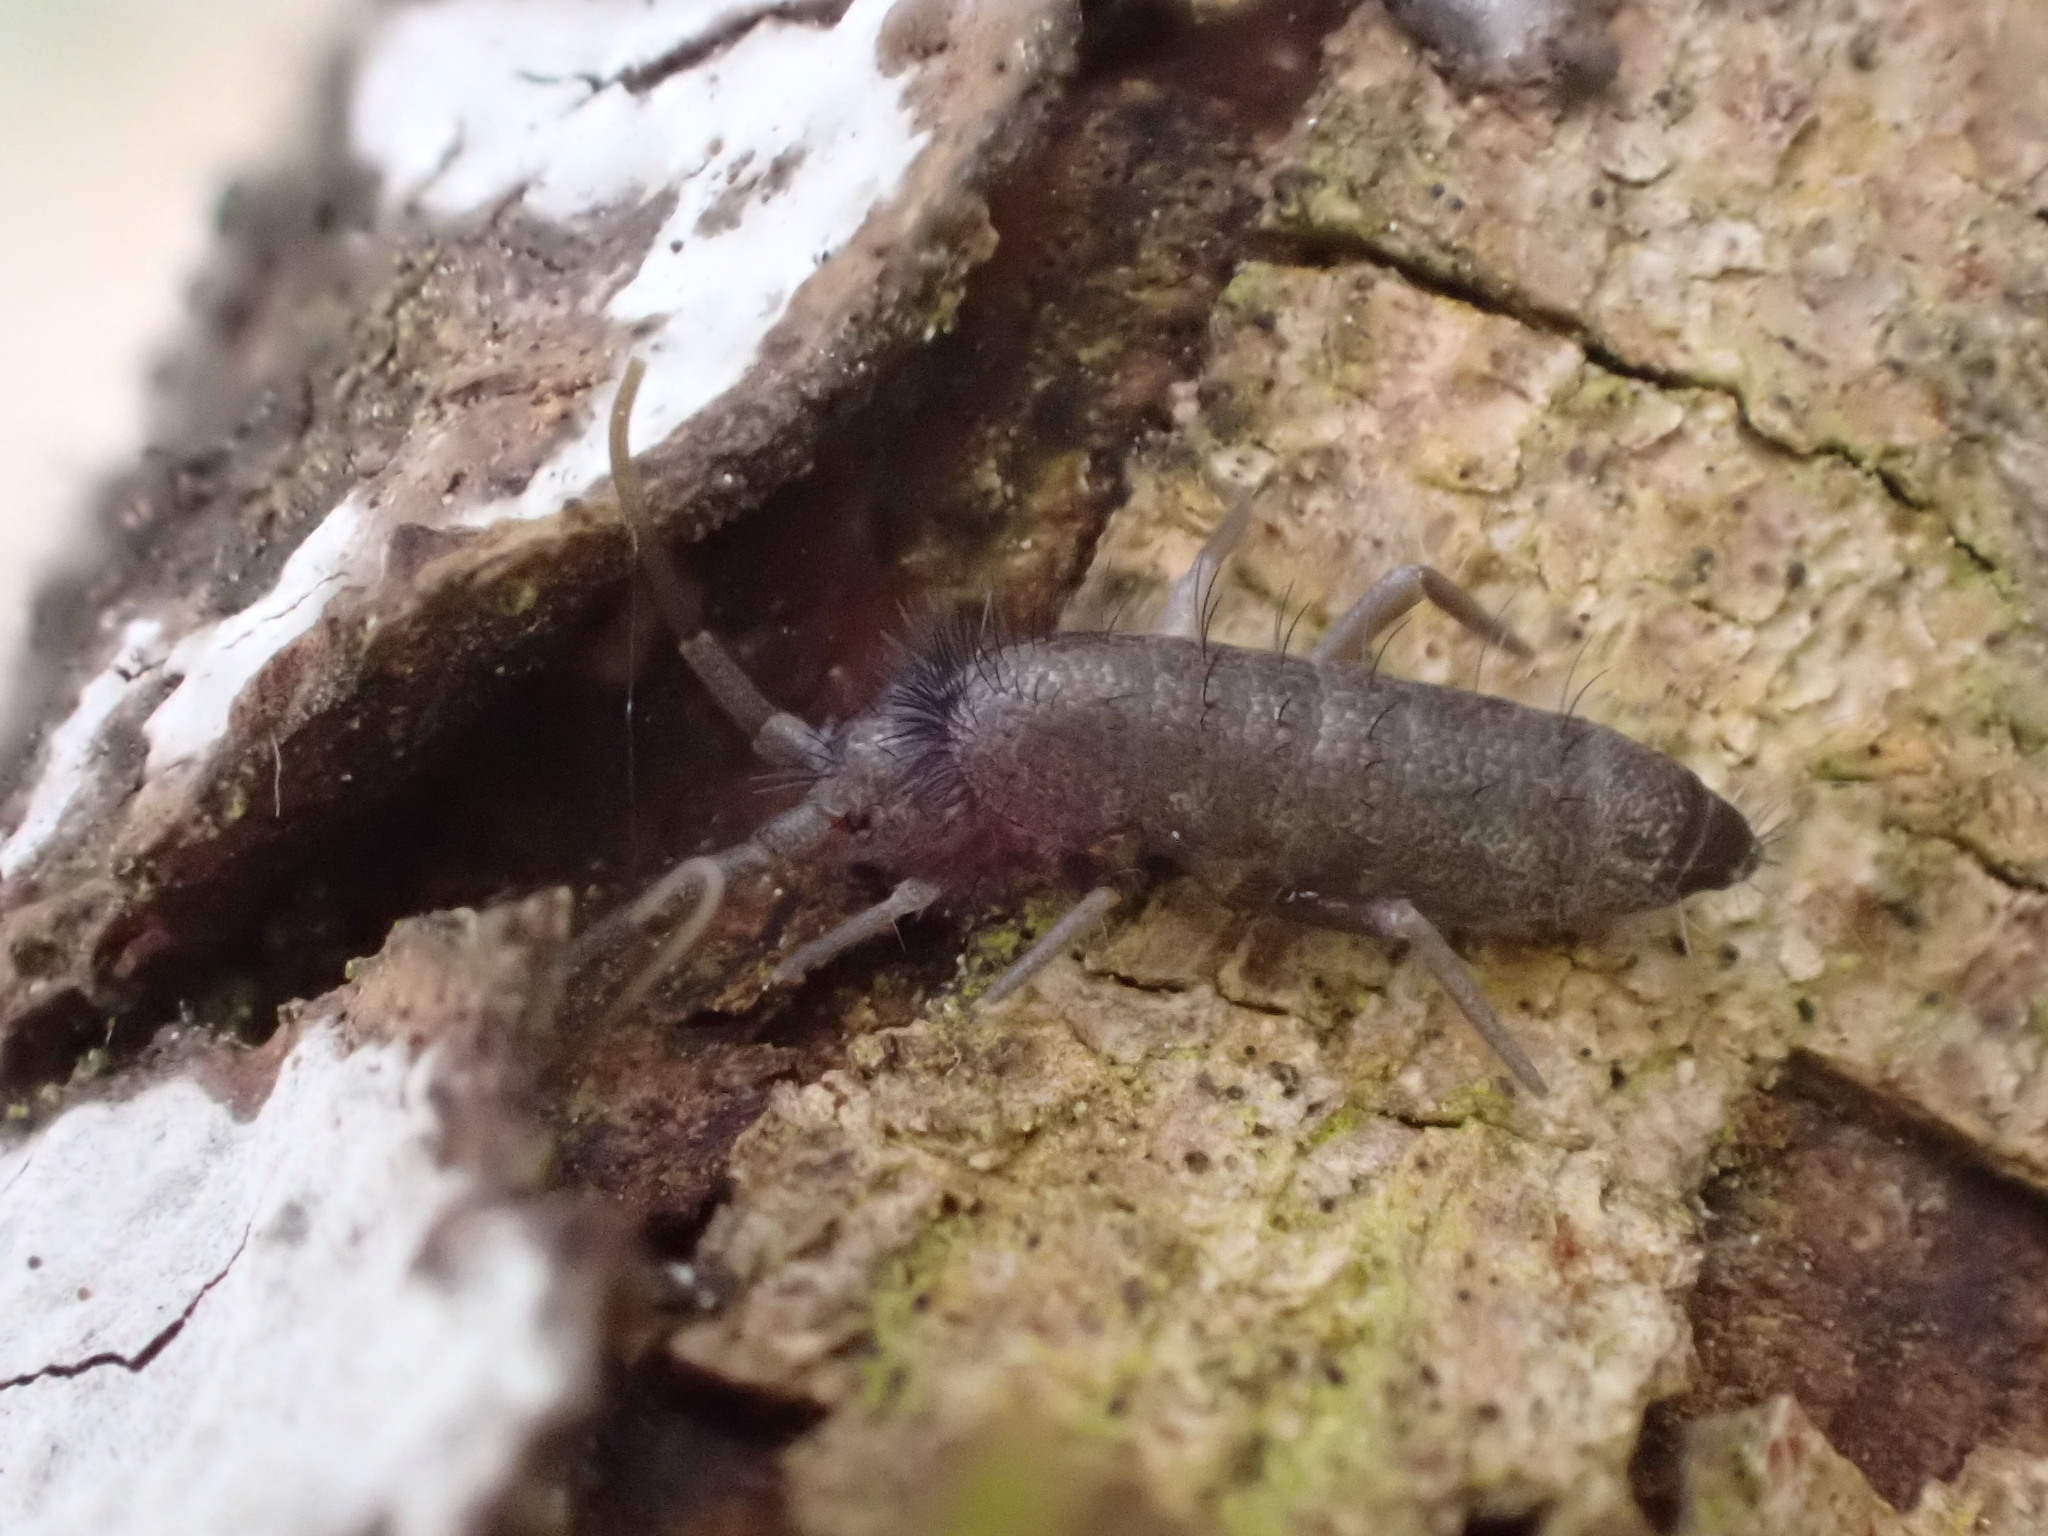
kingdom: Animalia
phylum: Arthropoda
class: Collembola
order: Entomobryomorpha
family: Tomoceridae
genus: Pogonognathellus
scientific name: Pogonognathellus flavescens
